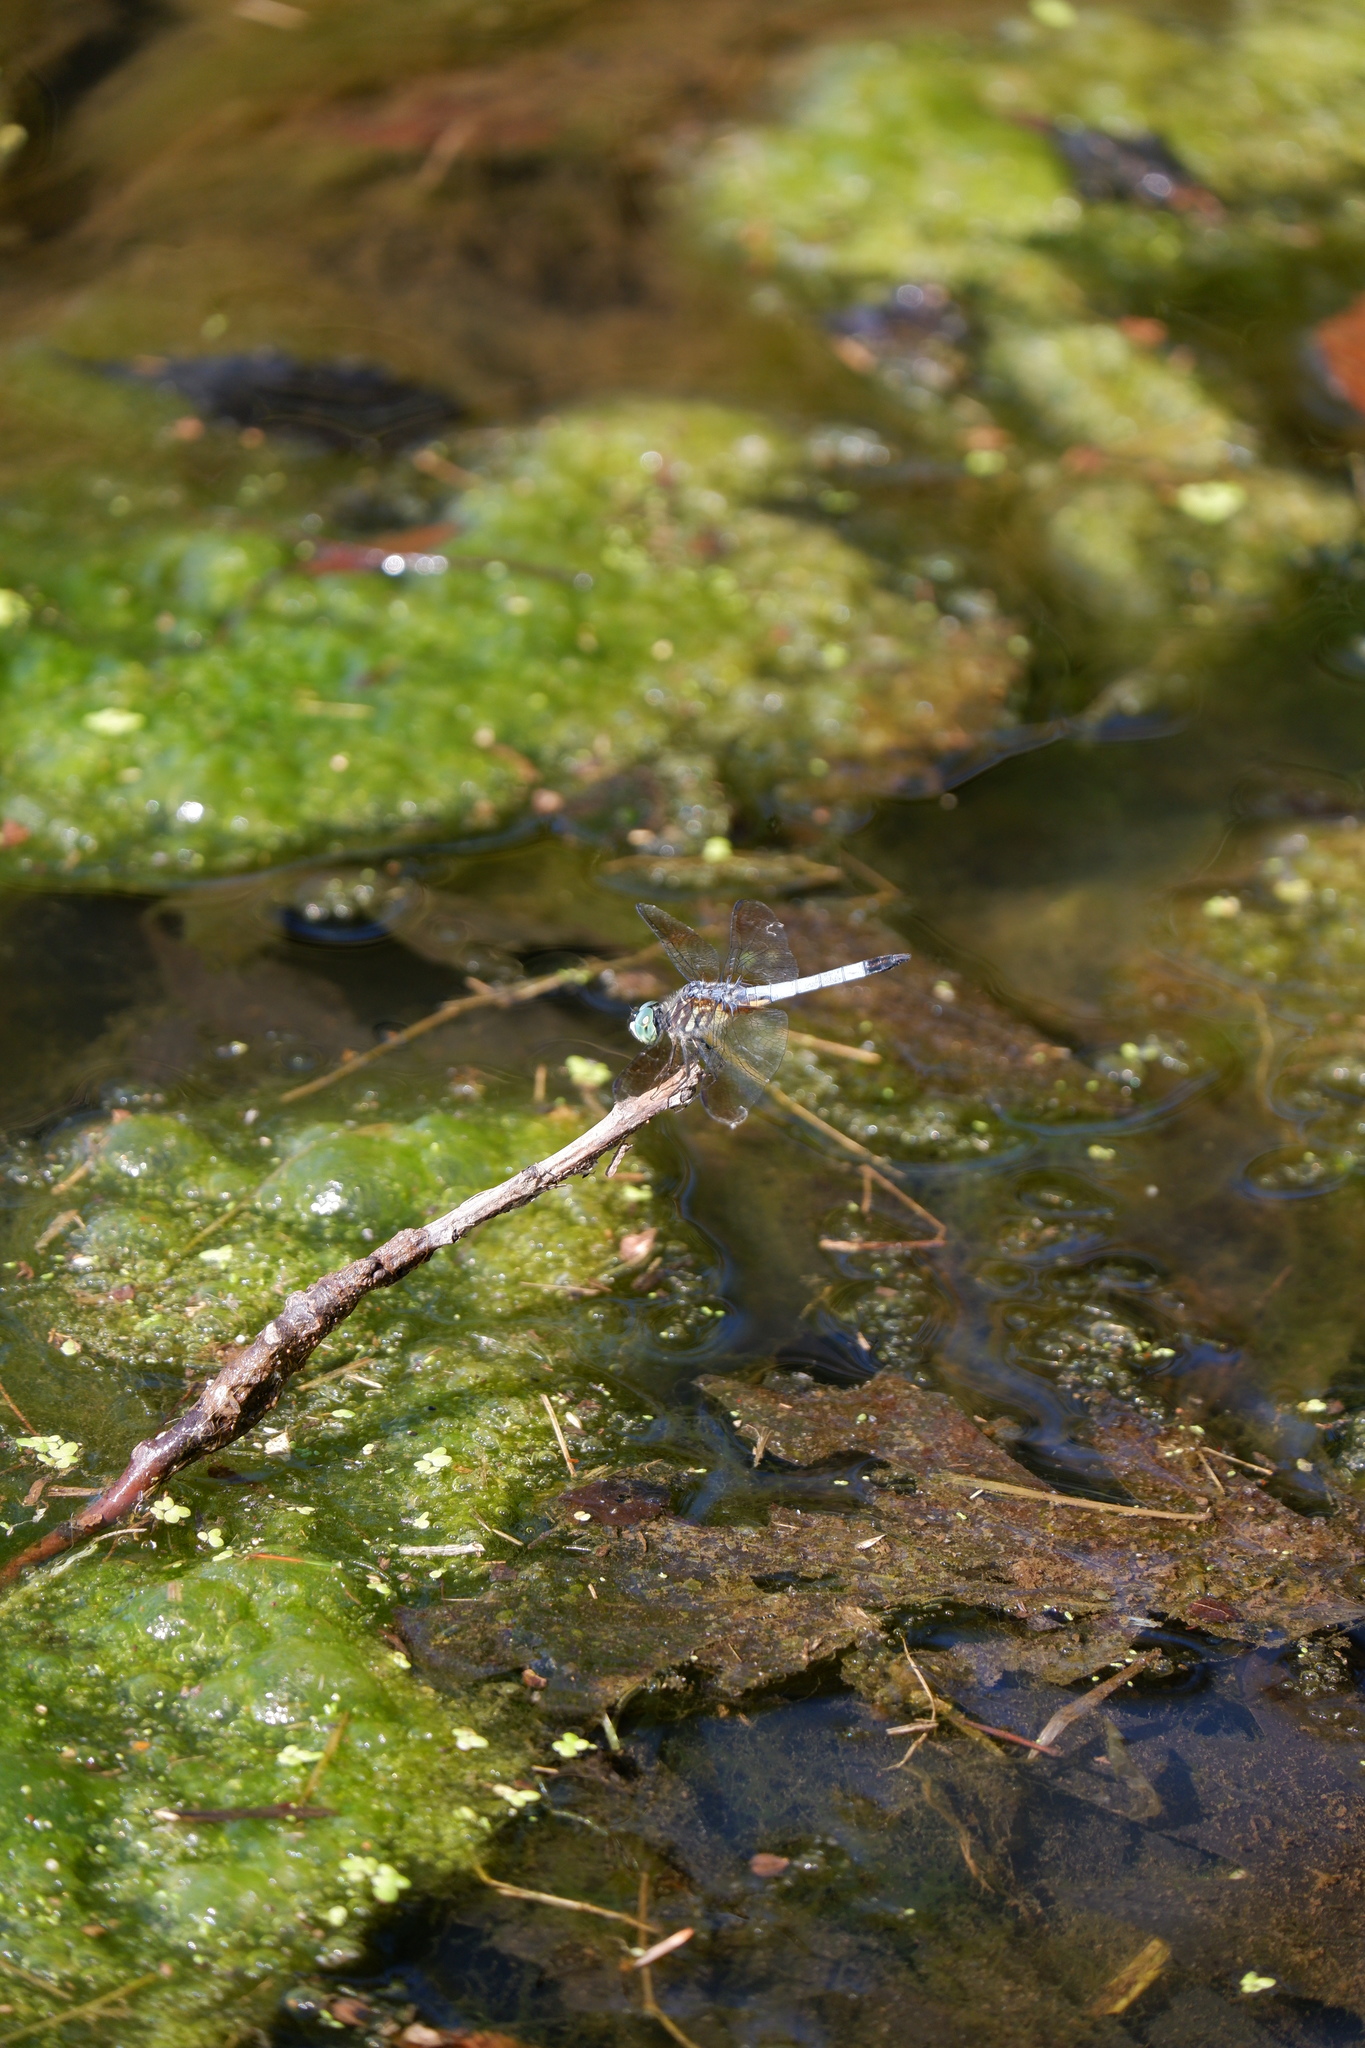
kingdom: Animalia
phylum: Arthropoda
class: Insecta
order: Odonata
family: Libellulidae
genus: Pachydiplax
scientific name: Pachydiplax longipennis
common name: Blue dasher
